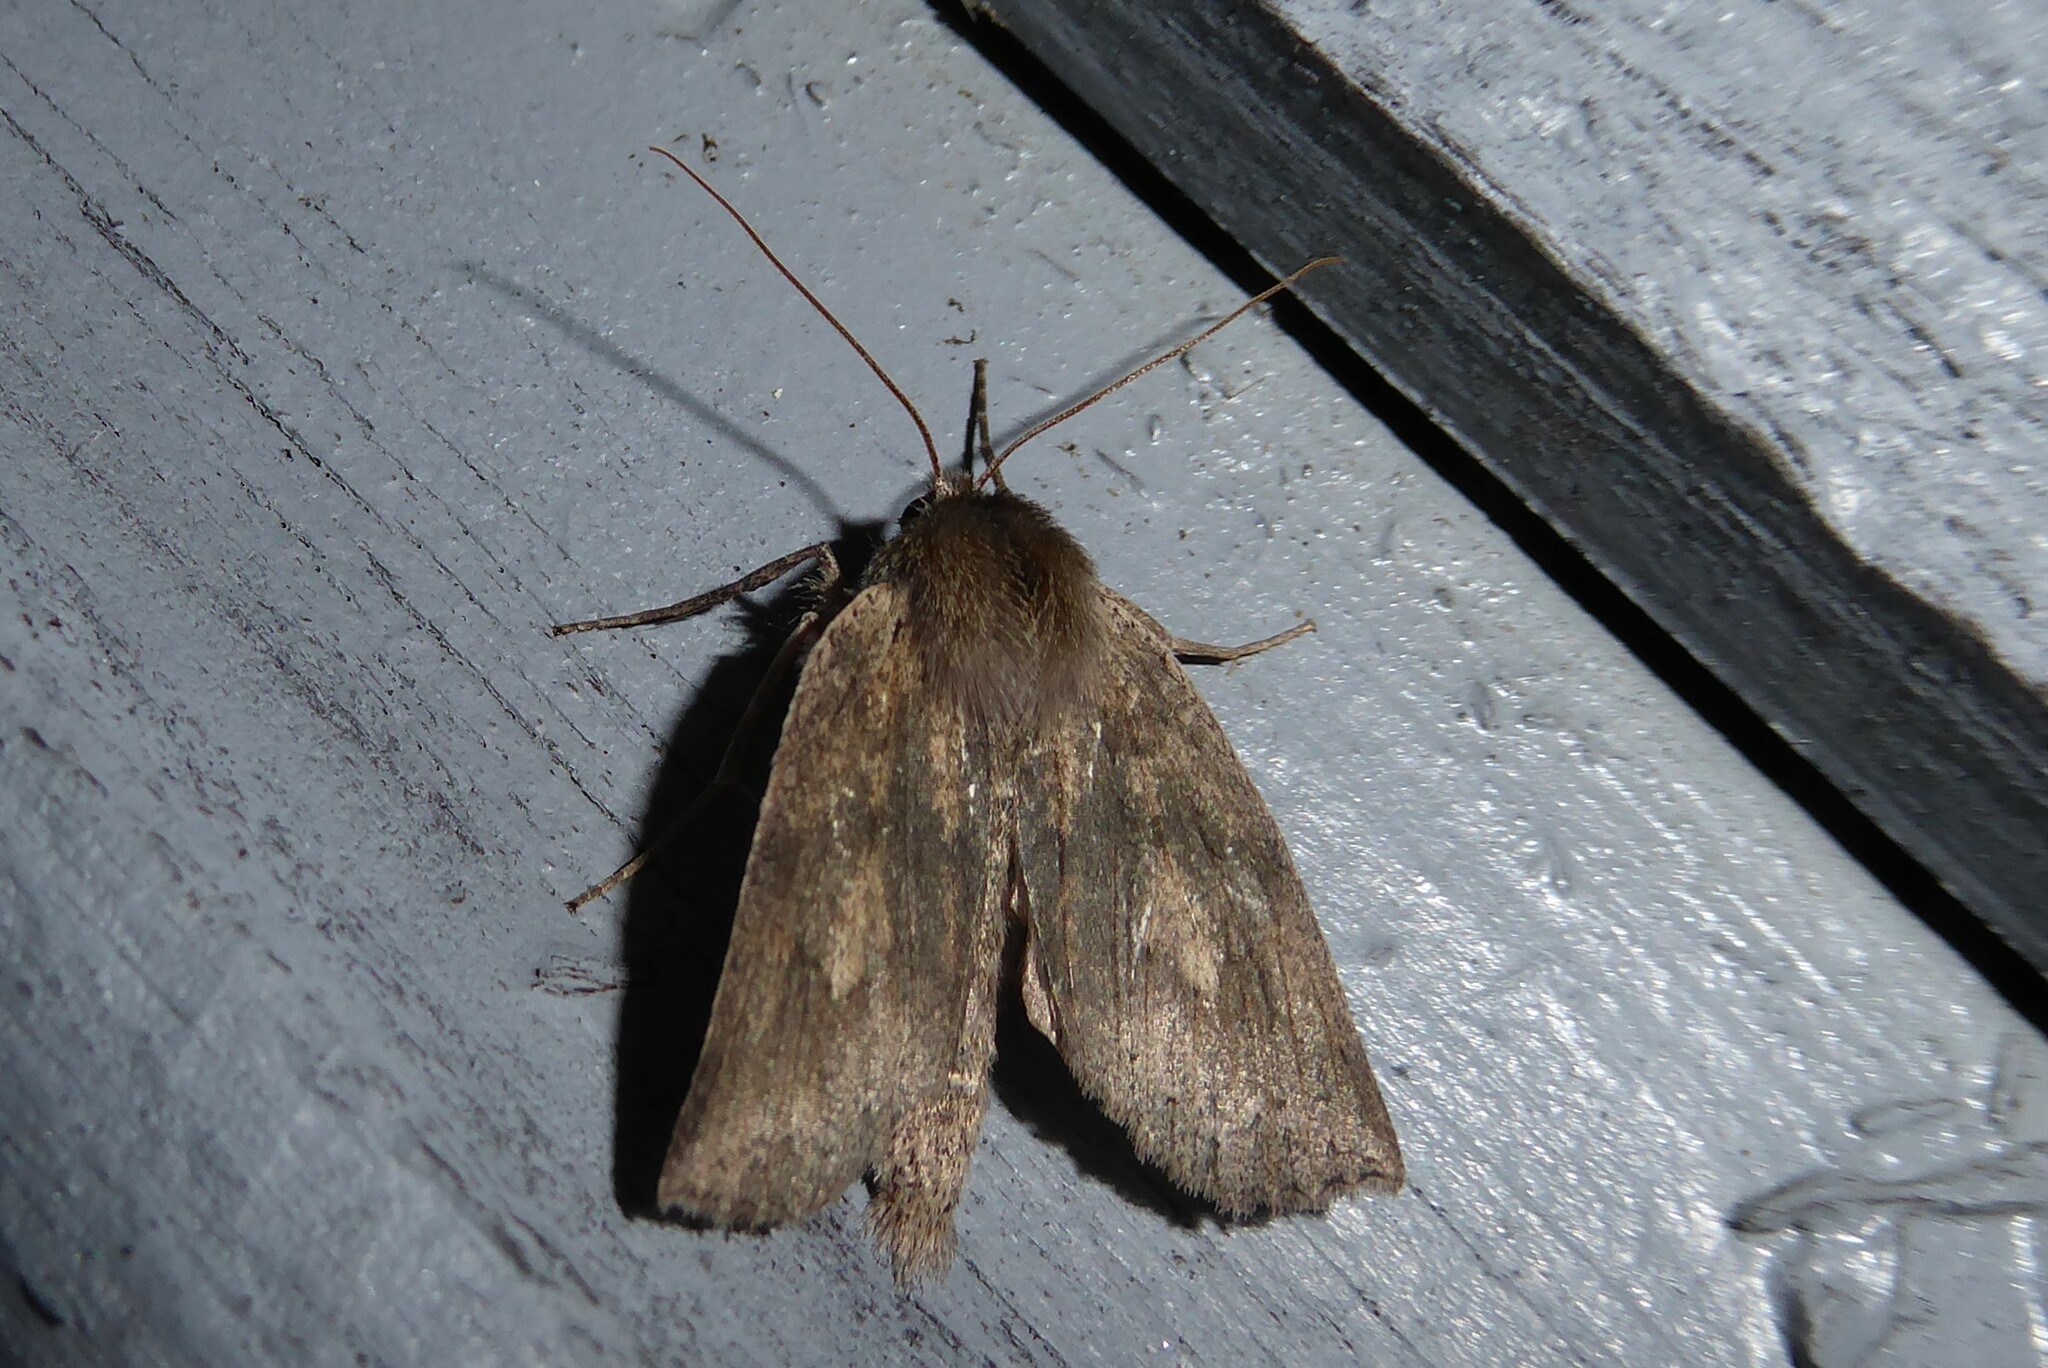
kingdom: Animalia
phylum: Arthropoda
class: Insecta
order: Lepidoptera
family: Geometridae
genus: Declana
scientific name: Declana leptomera
